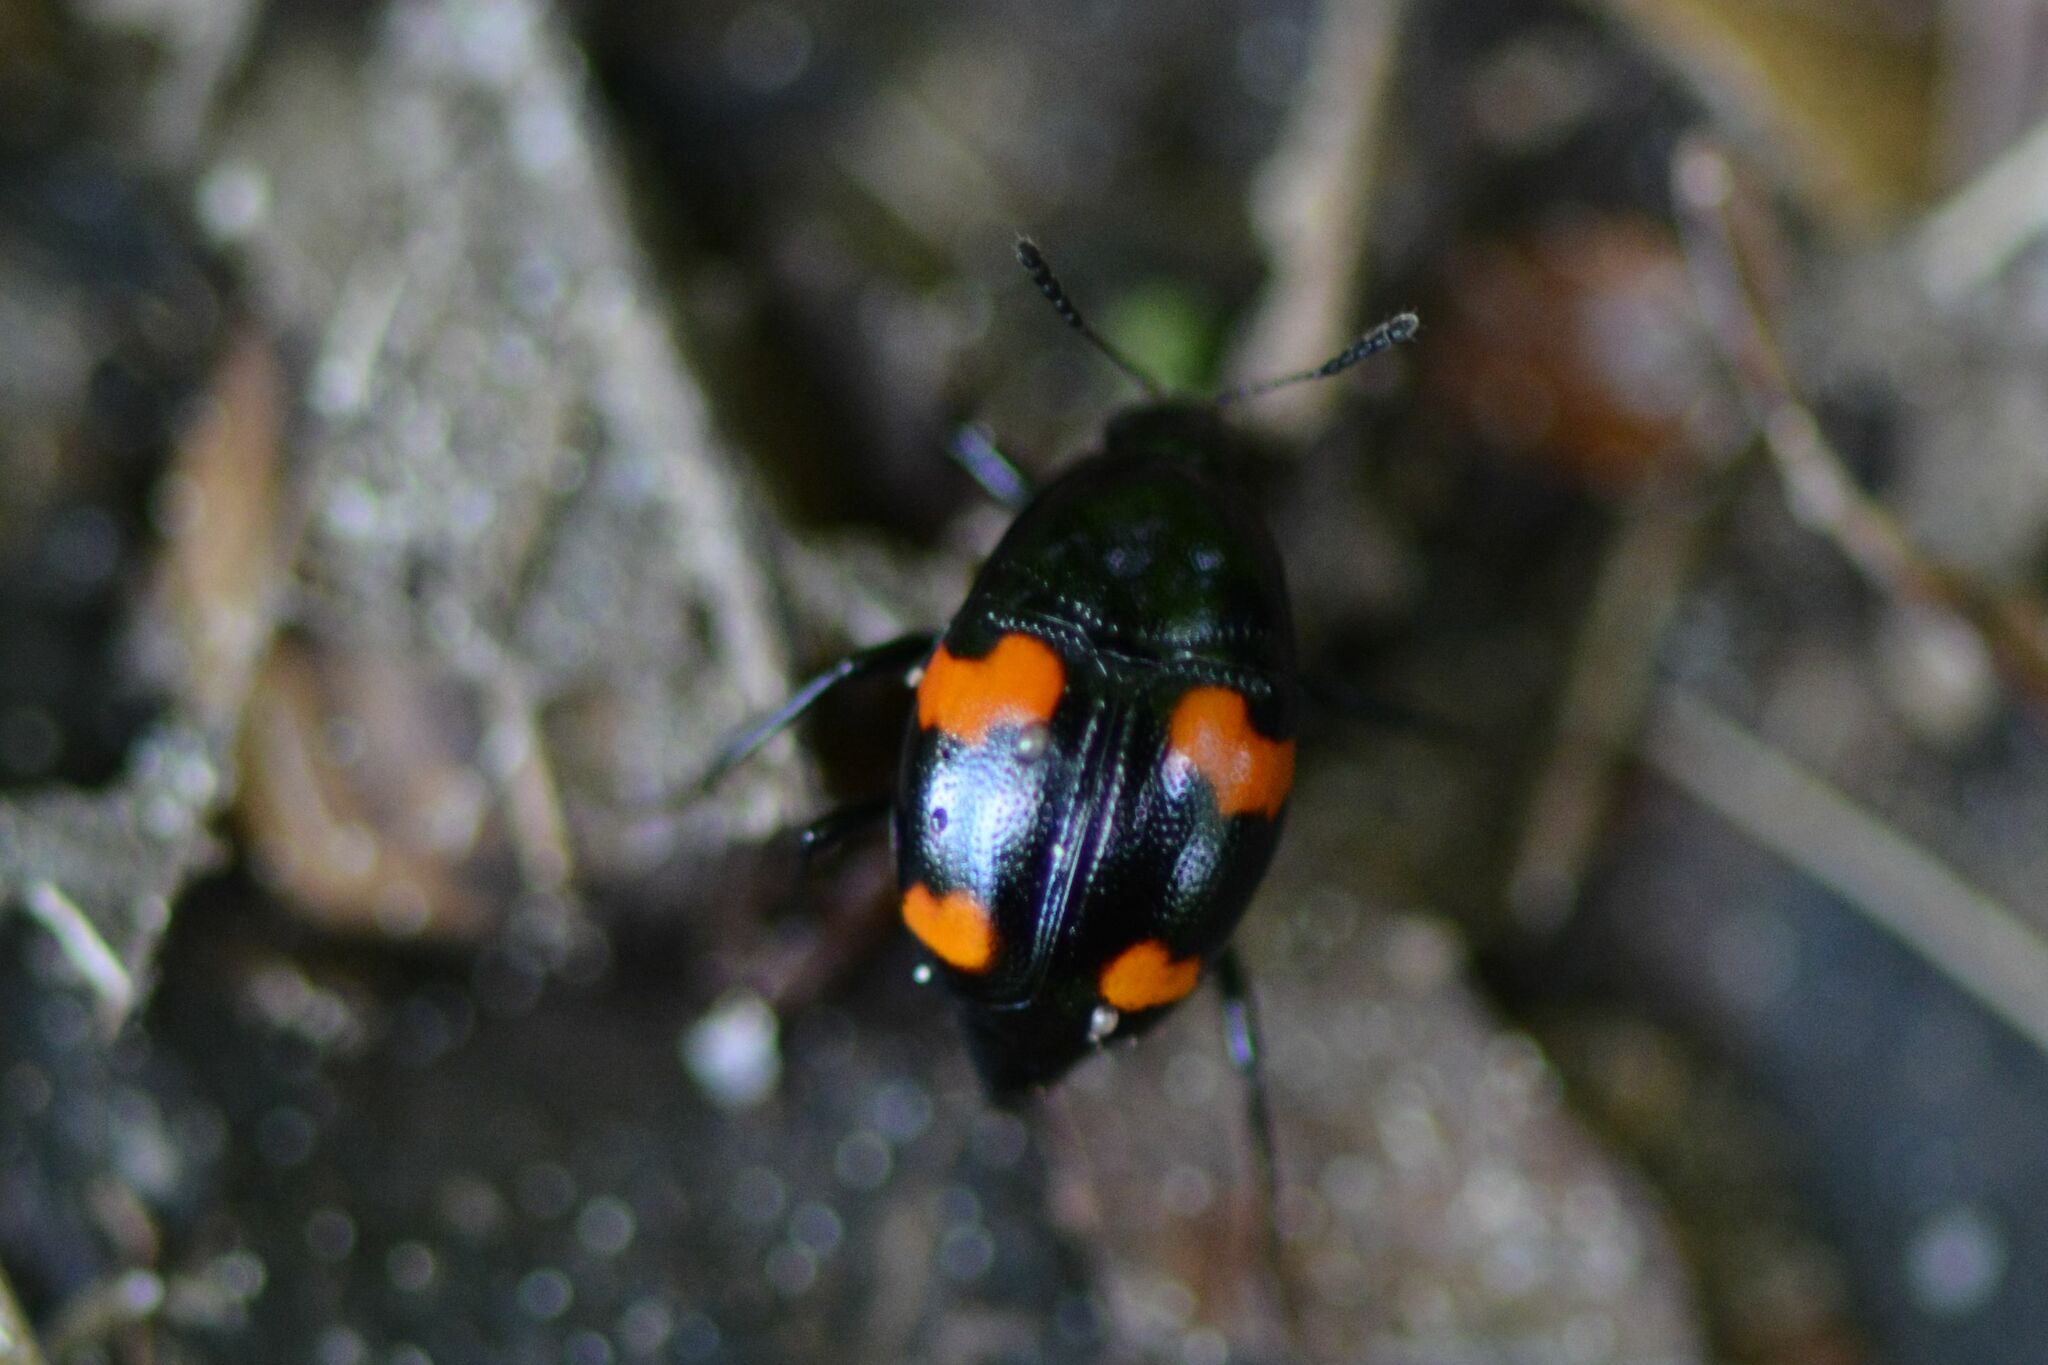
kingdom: Animalia
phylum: Arthropoda
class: Insecta
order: Coleoptera
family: Staphylinidae
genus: Scaphidium
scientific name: Scaphidium quadrimaculatum
